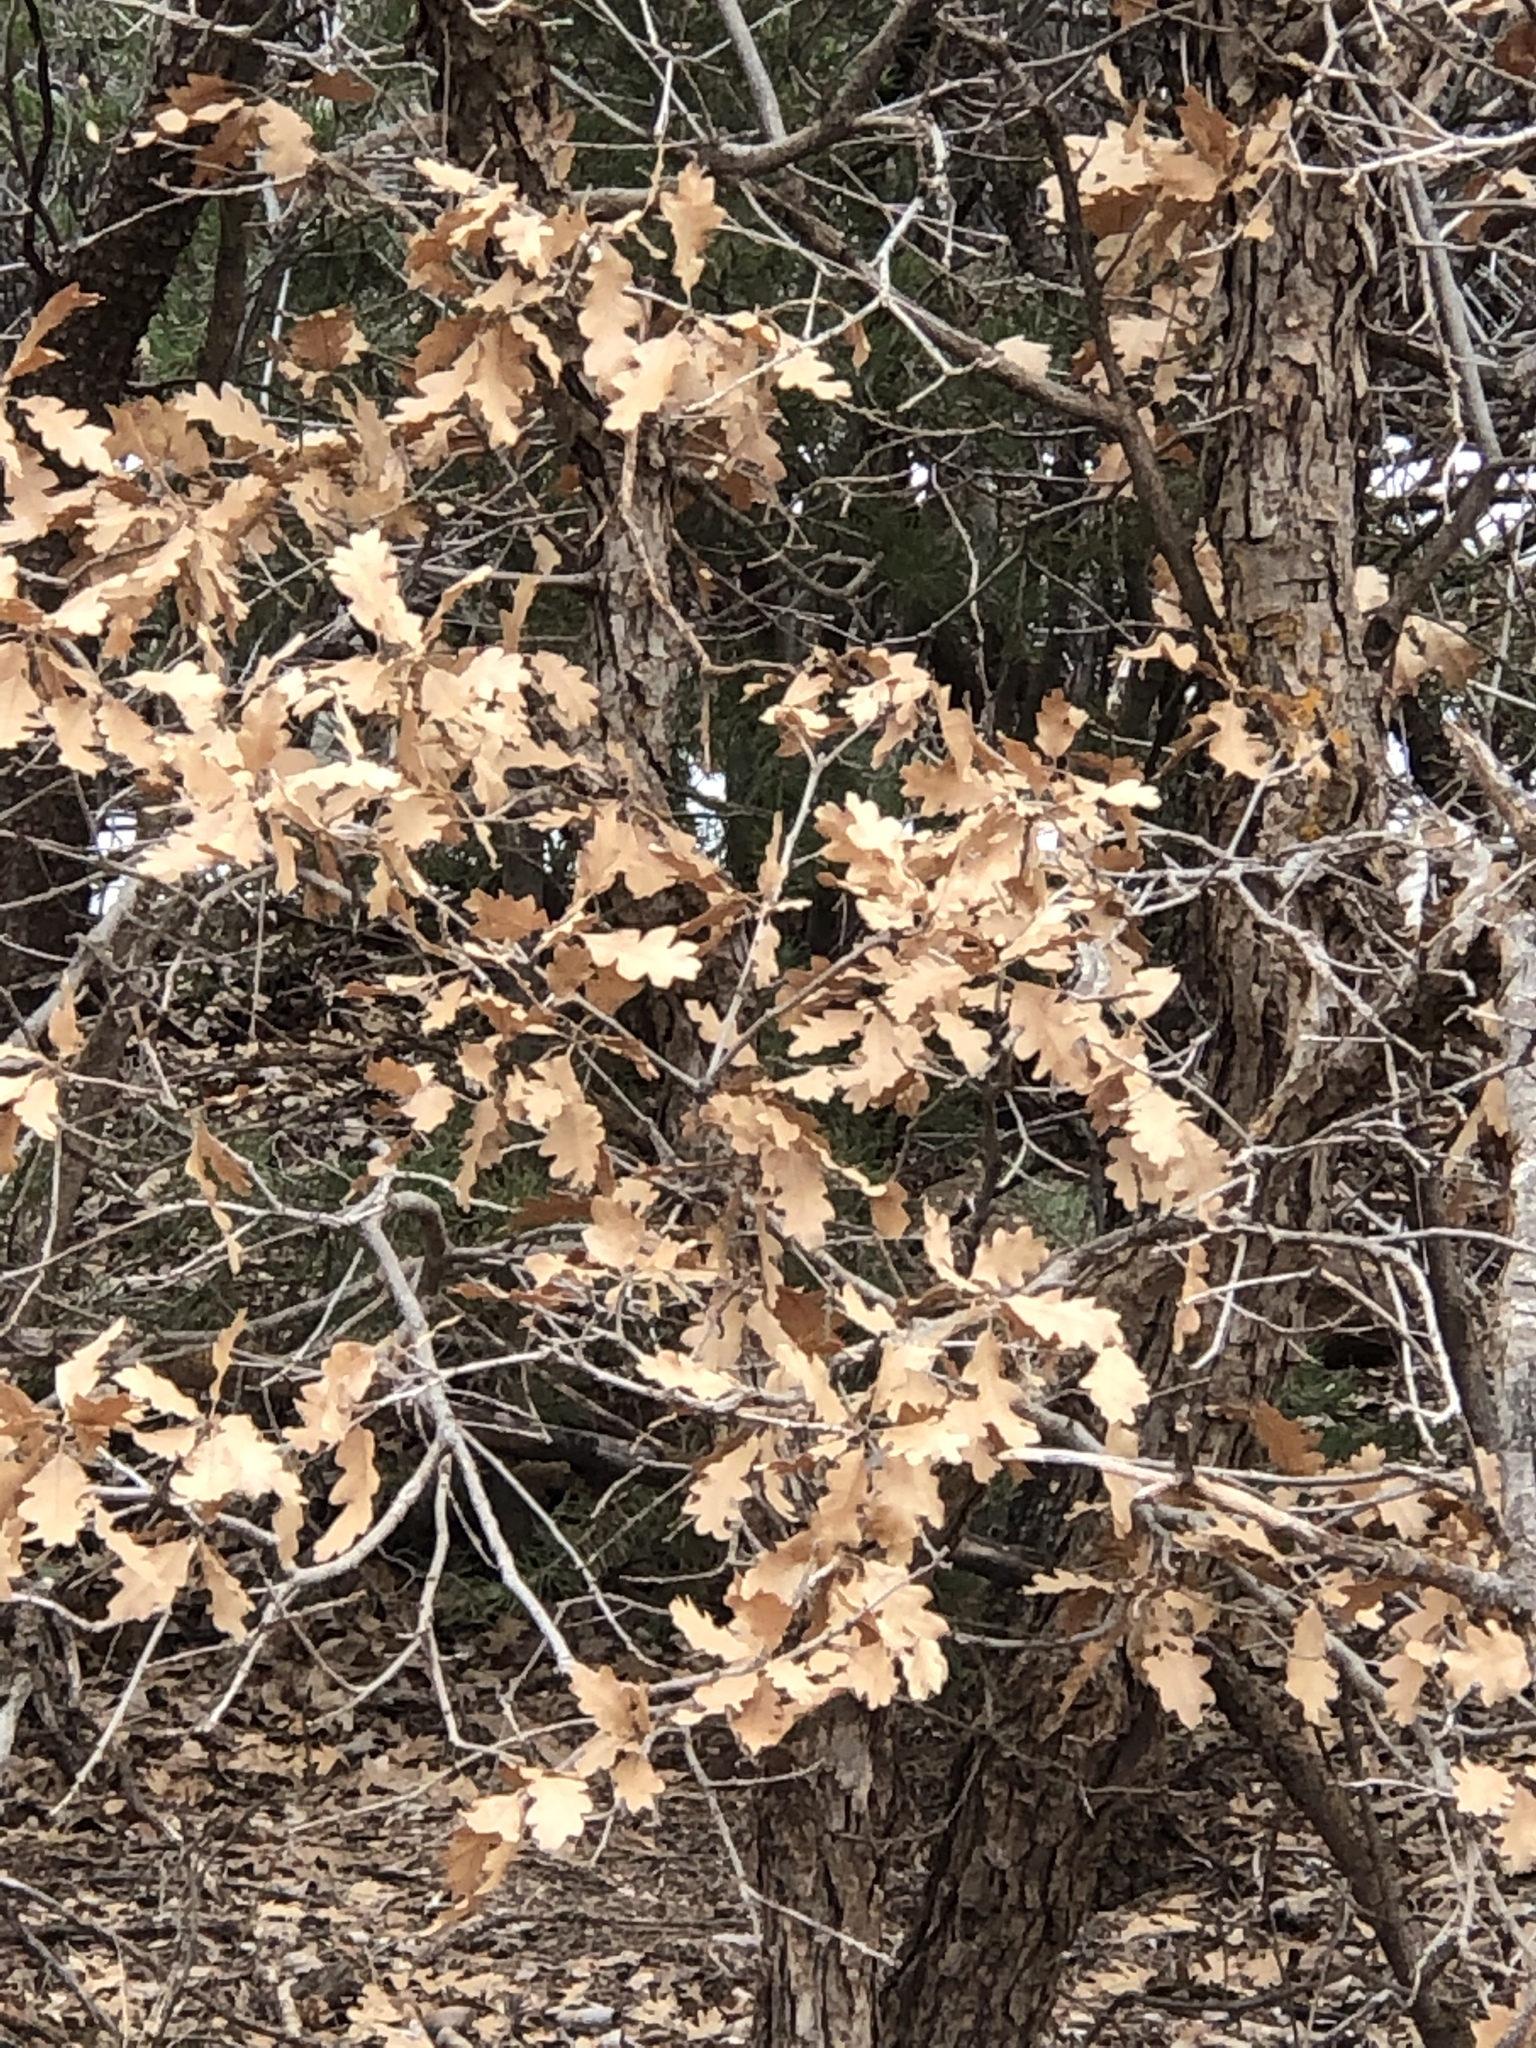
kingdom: Plantae
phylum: Tracheophyta
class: Magnoliopsida
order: Fagales
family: Fagaceae
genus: Quercus
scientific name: Quercus undulata
